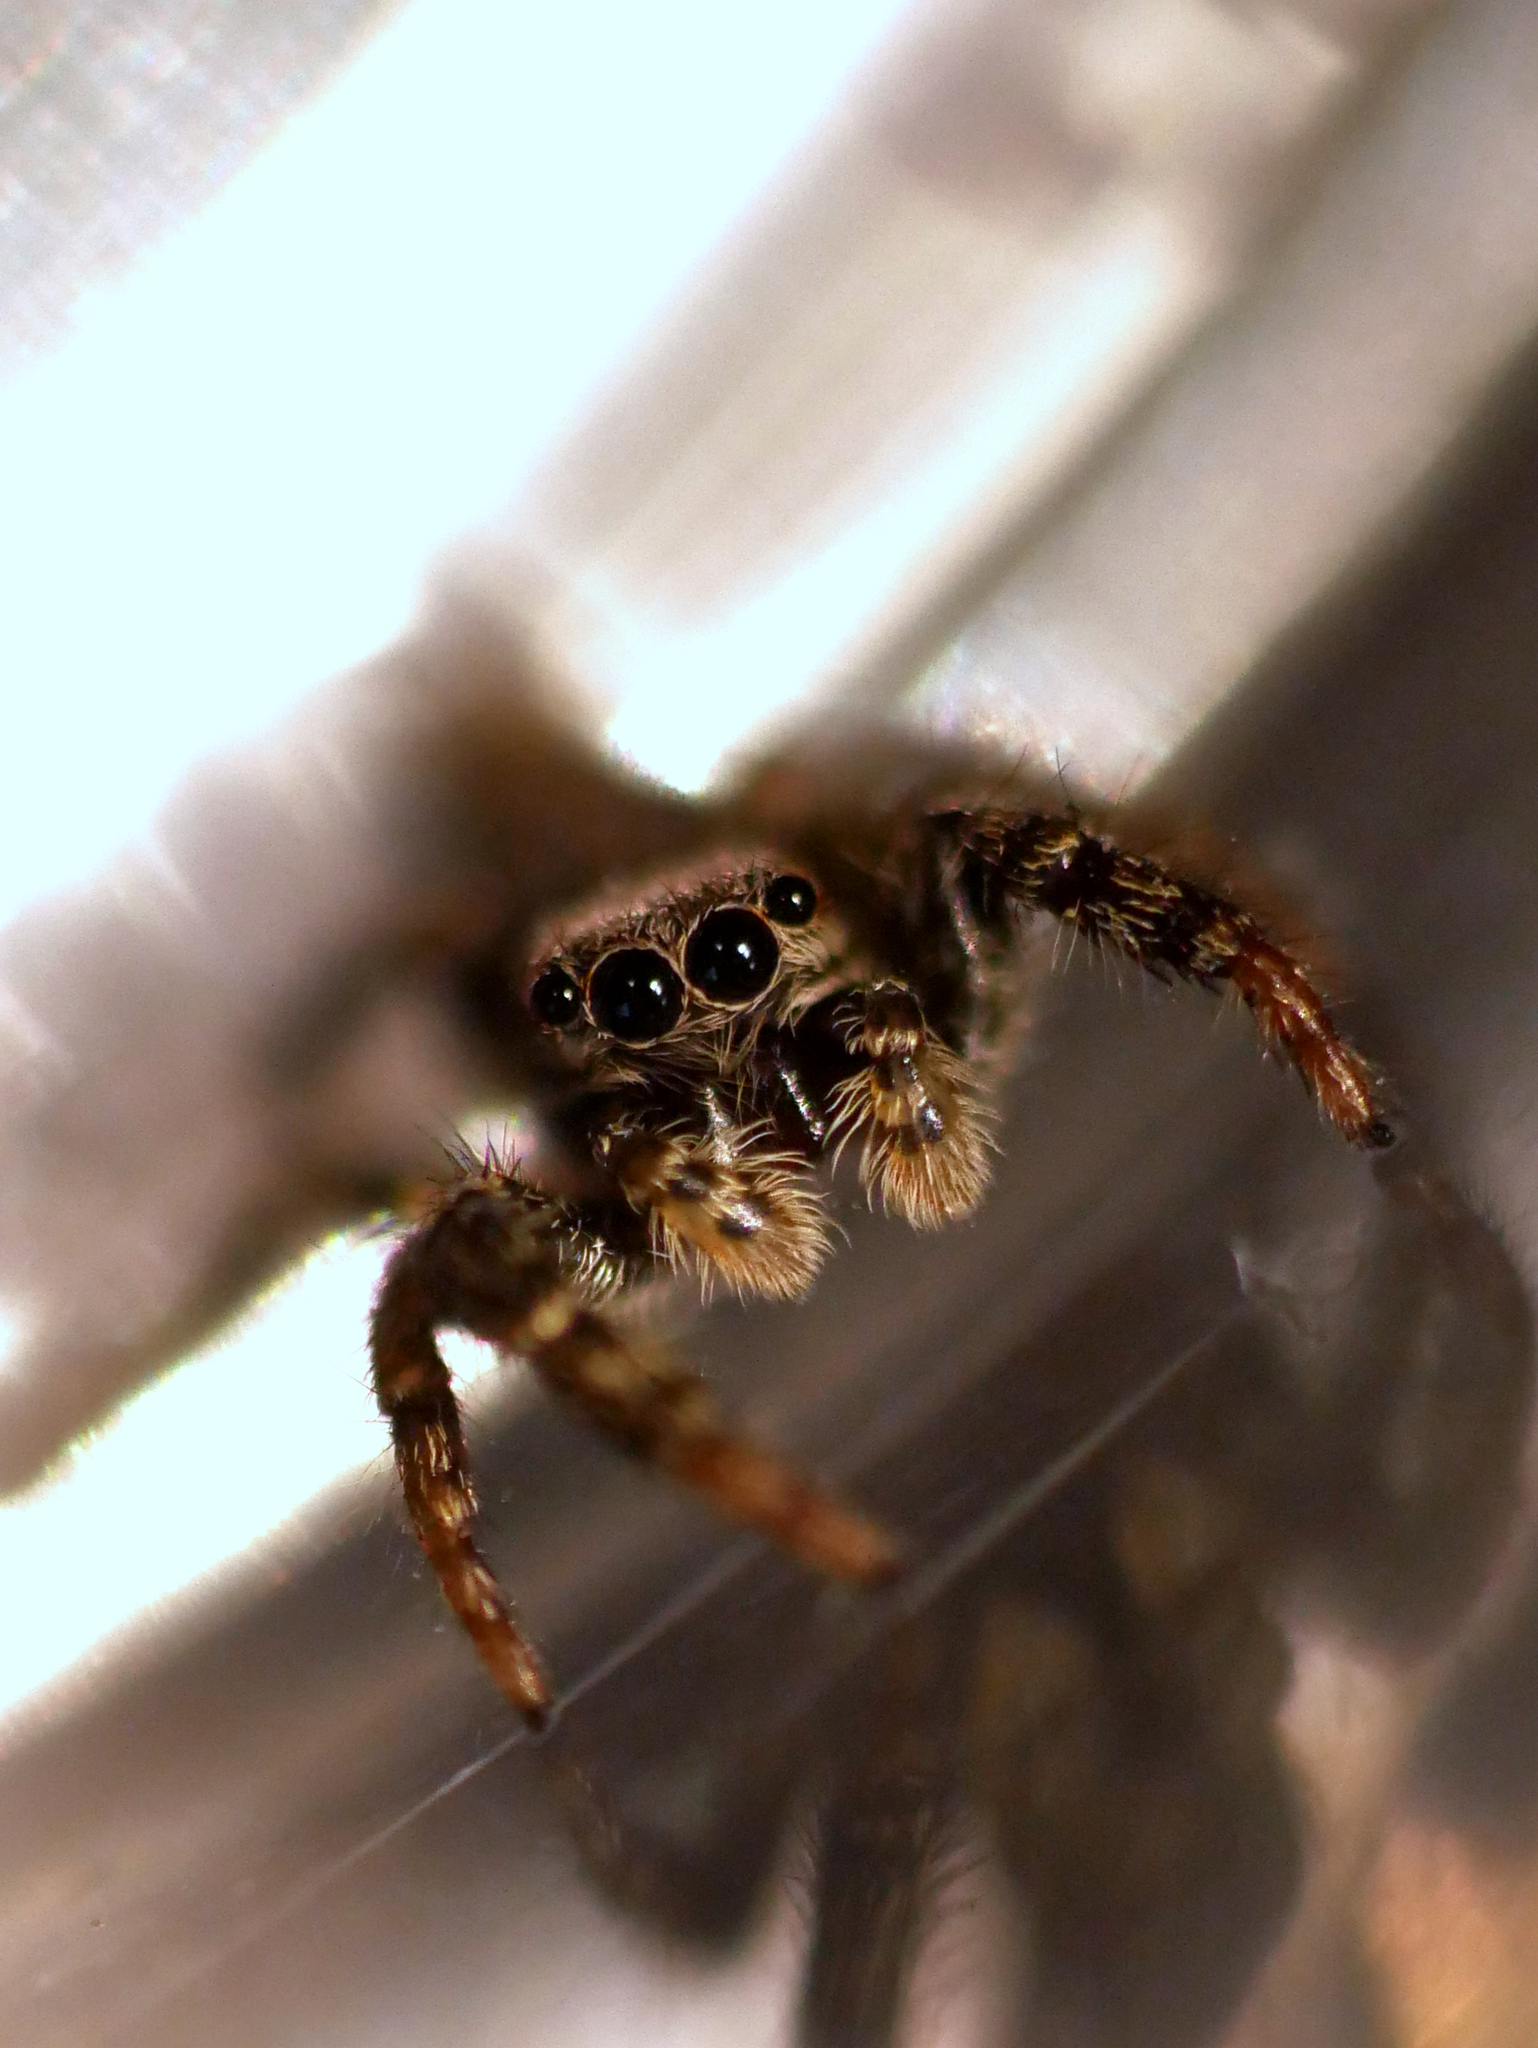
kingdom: Animalia
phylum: Arthropoda
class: Arachnida
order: Araneae
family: Salticidae
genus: Marpissa
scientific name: Marpissa muscosa
